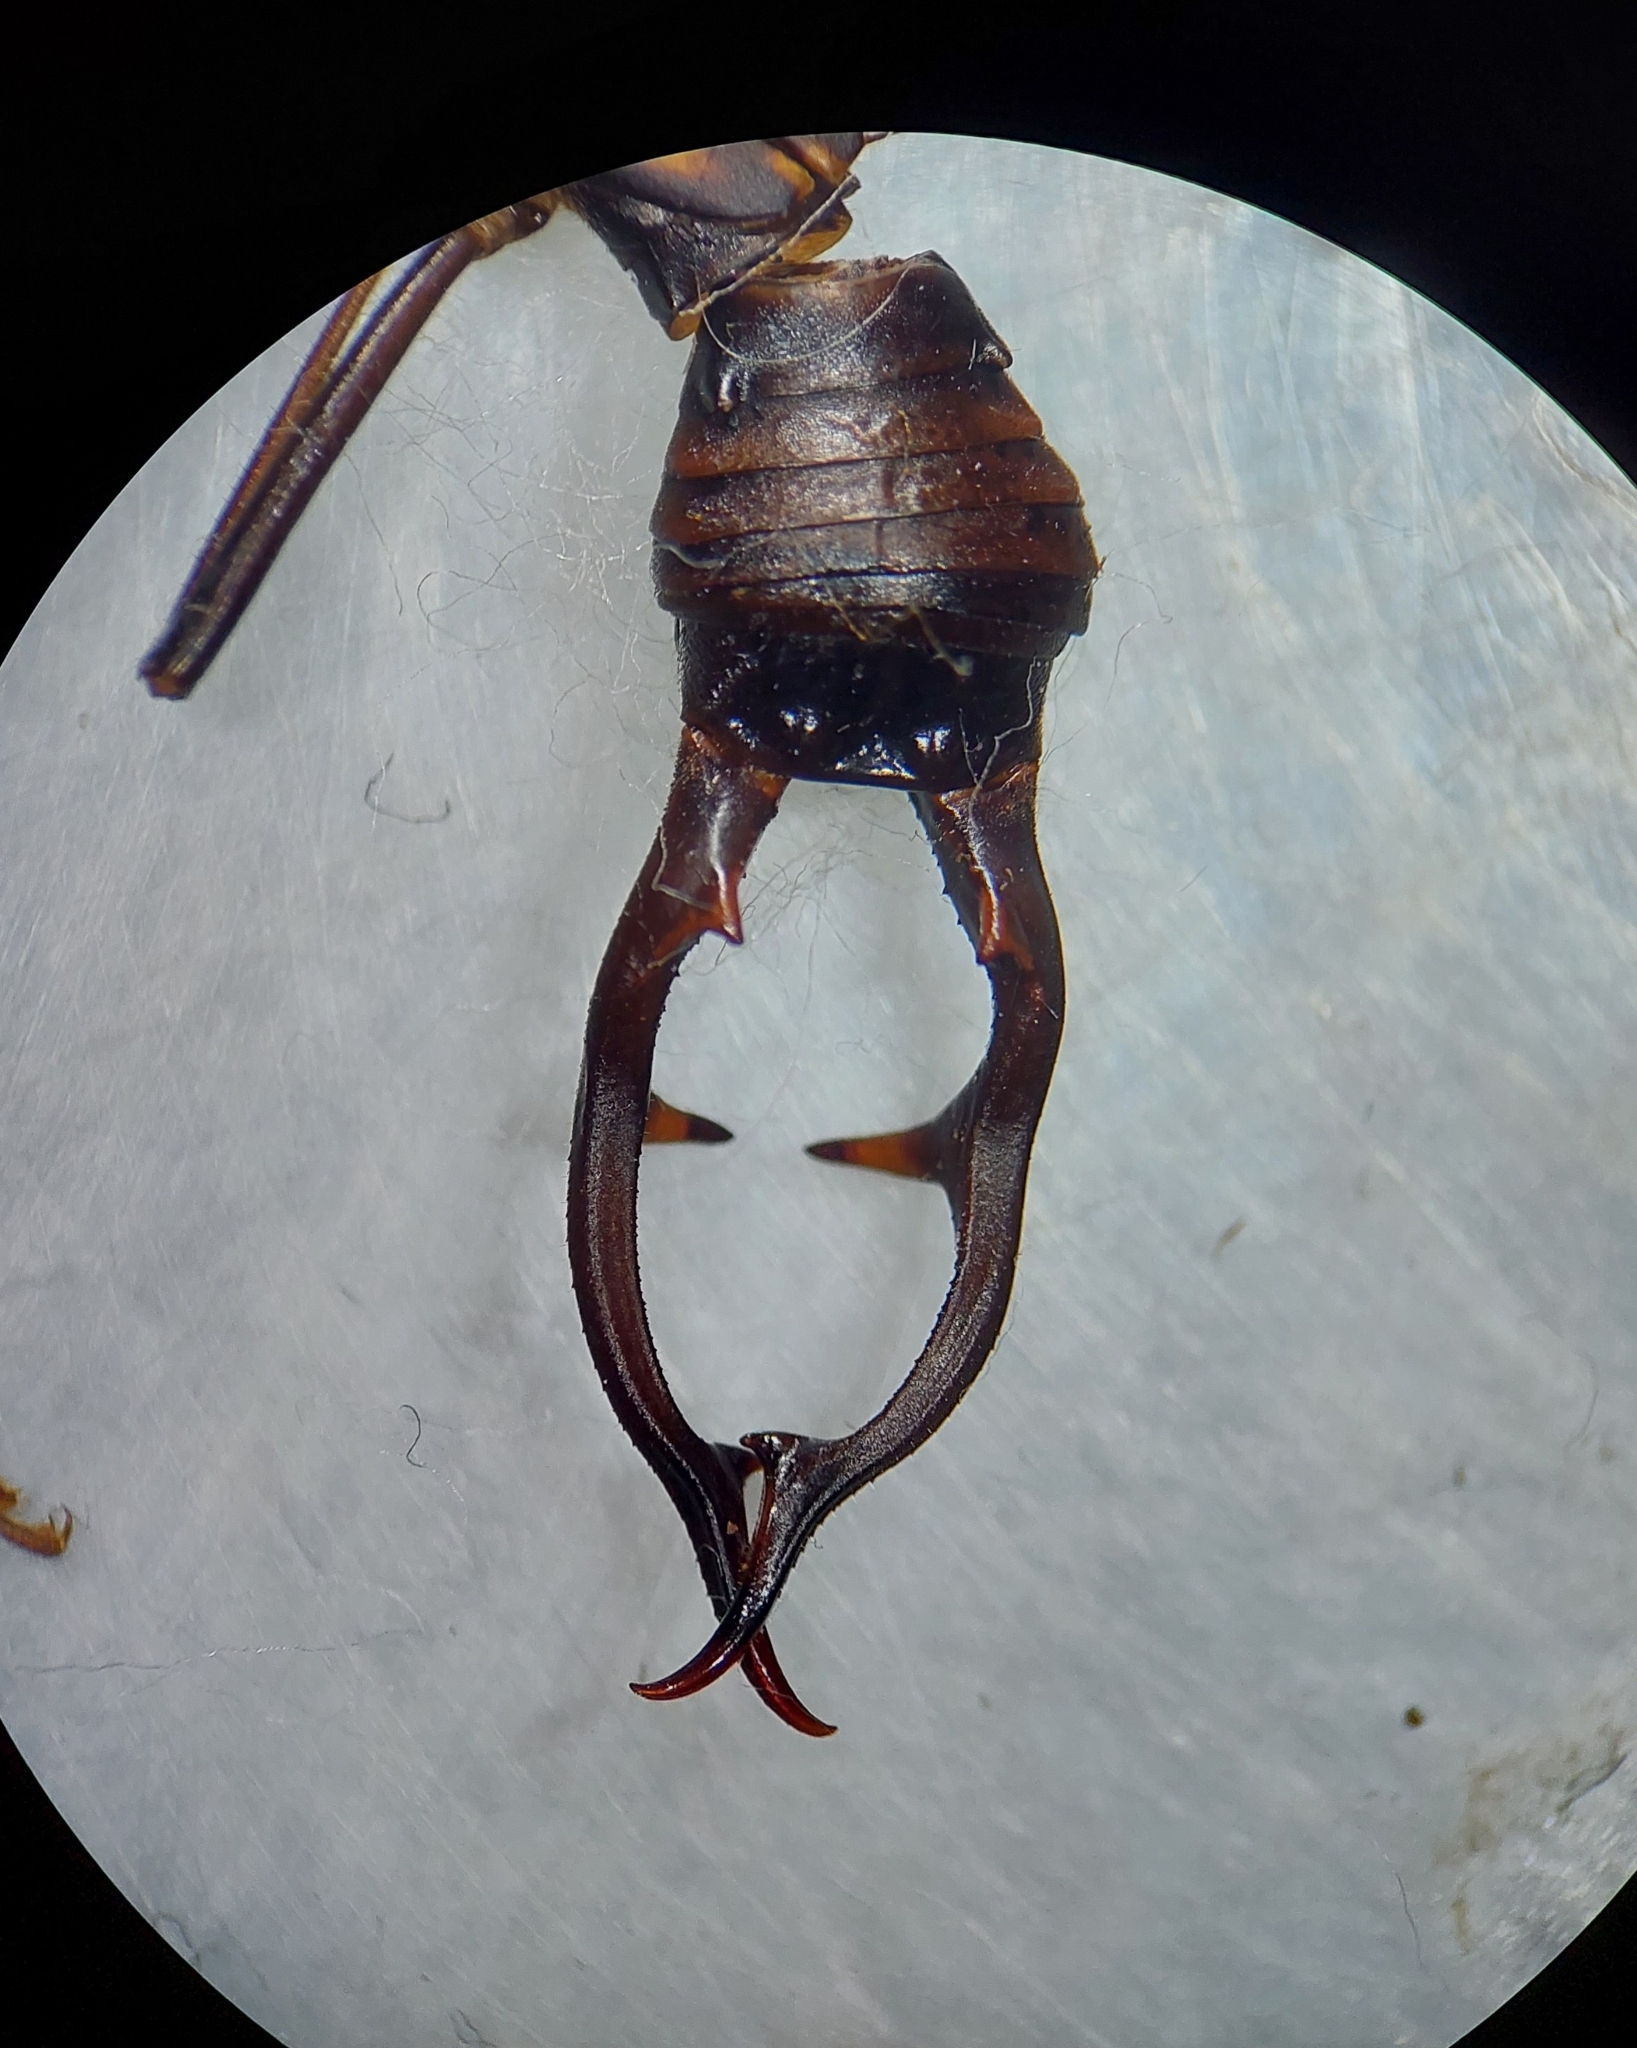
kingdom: Animalia
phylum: Arthropoda
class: Insecta
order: Dermaptera
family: Forficulidae
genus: Opisthocosmia
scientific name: Opisthocosmia centurio
